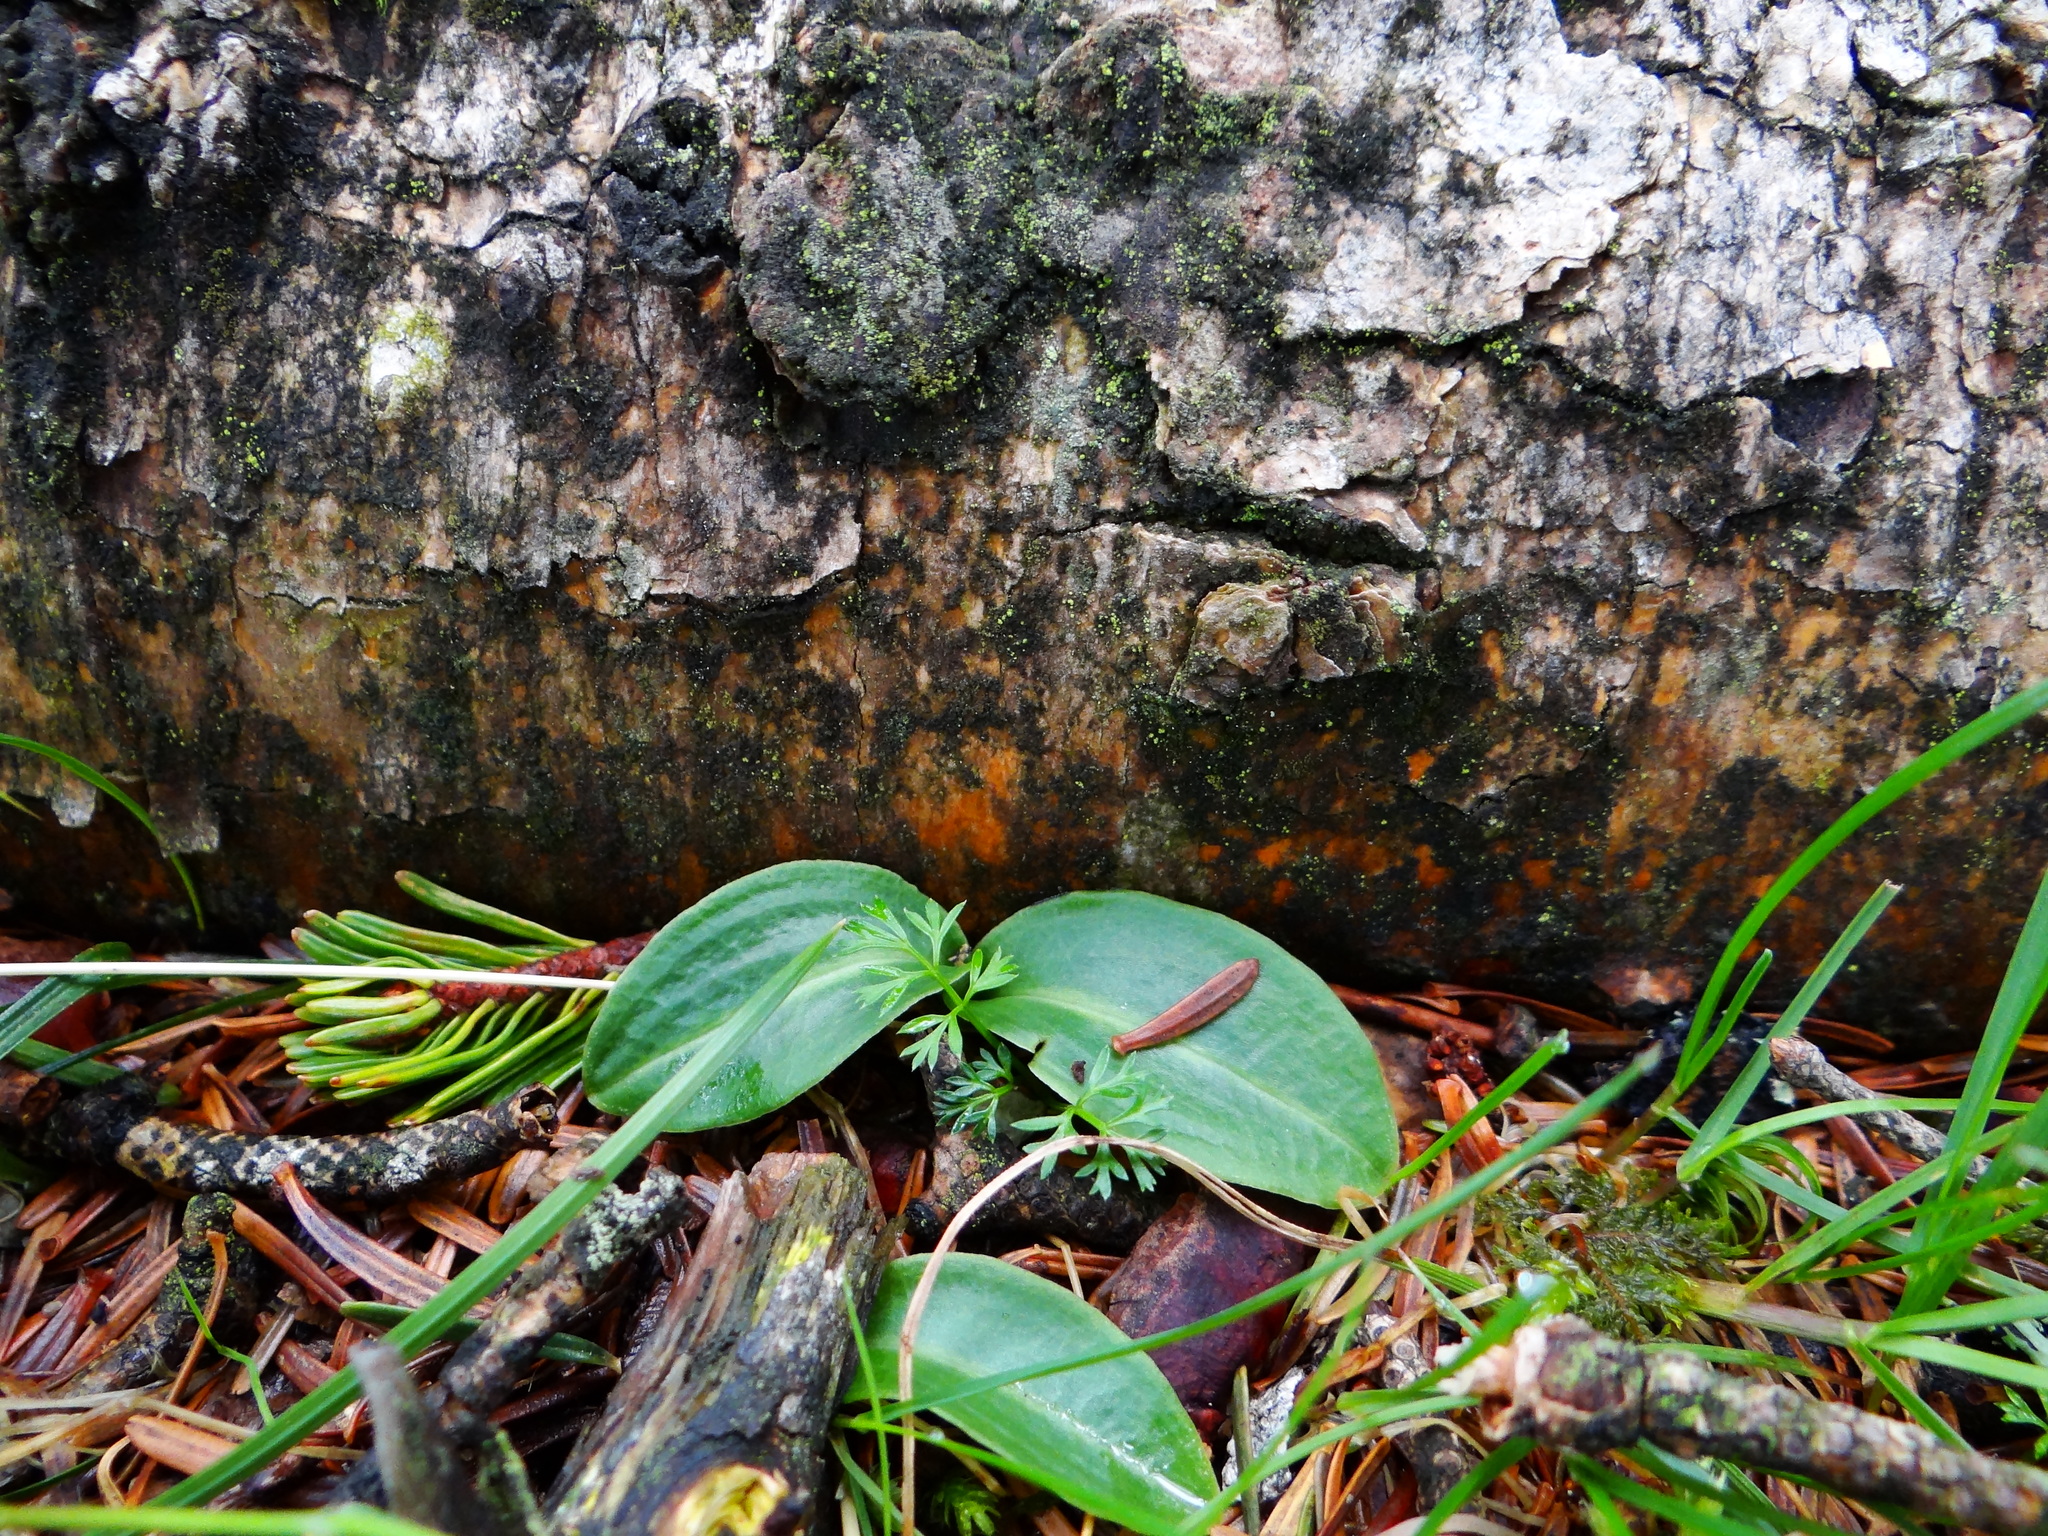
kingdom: Plantae
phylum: Tracheophyta
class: Liliopsida
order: Asparagales
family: Orchidaceae
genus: Platanthera
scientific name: Platanthera brevicalcarata
